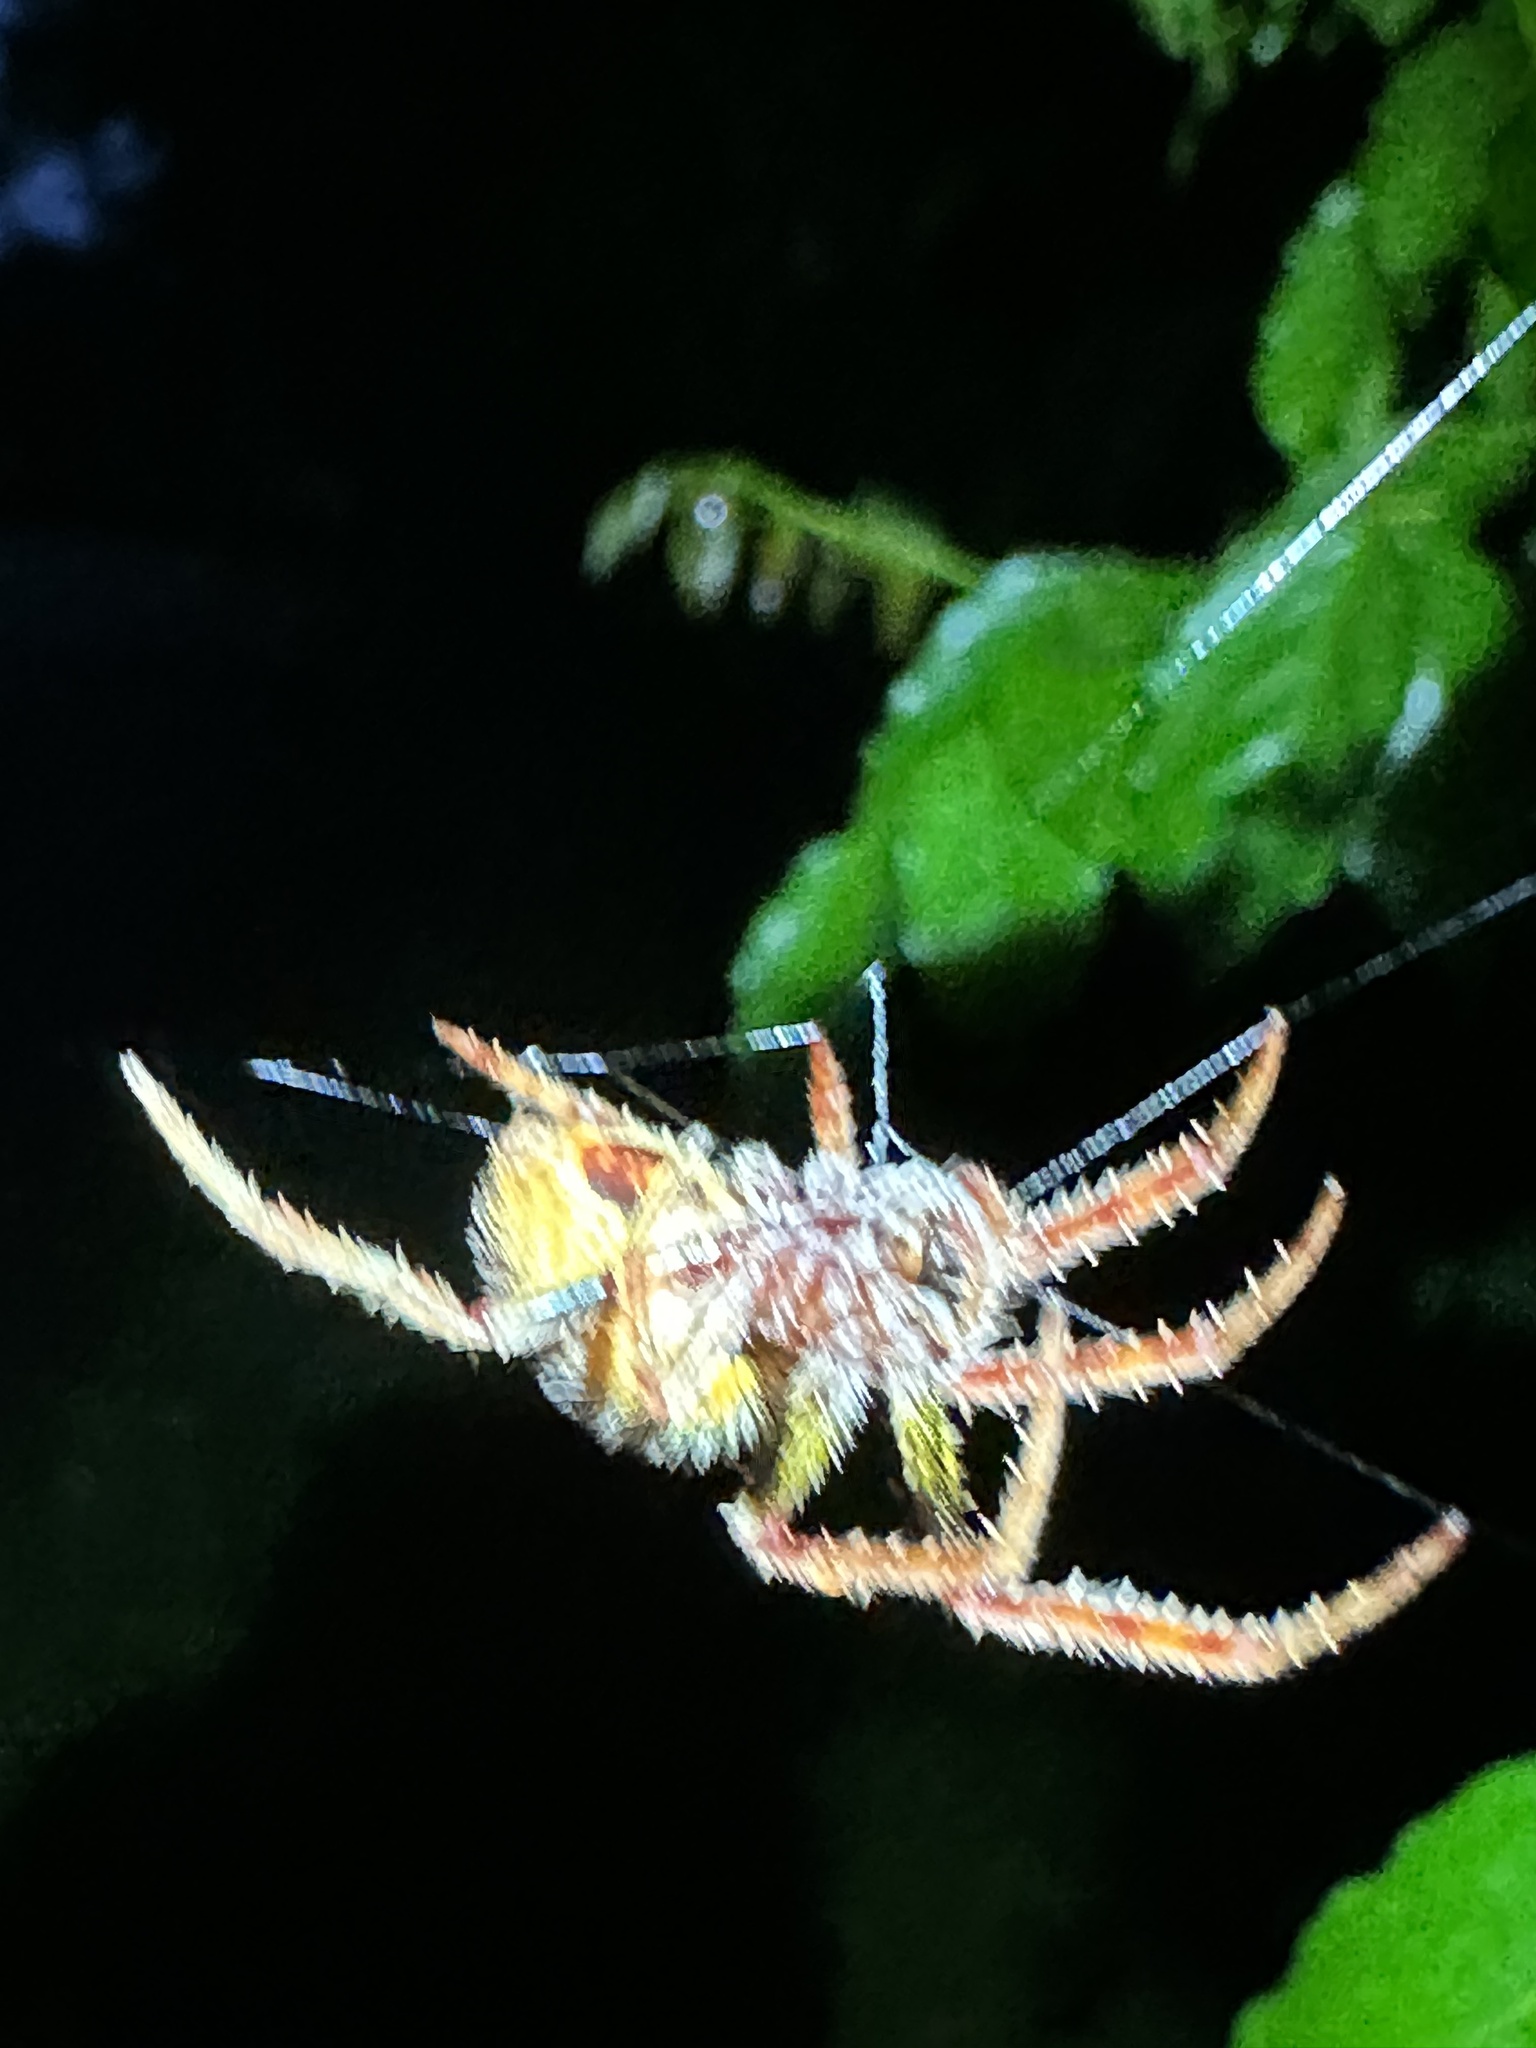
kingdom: Animalia
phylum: Arthropoda
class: Arachnida
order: Araneae
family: Araneidae
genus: Eriophora
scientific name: Eriophora ravilla
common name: Orb weavers
